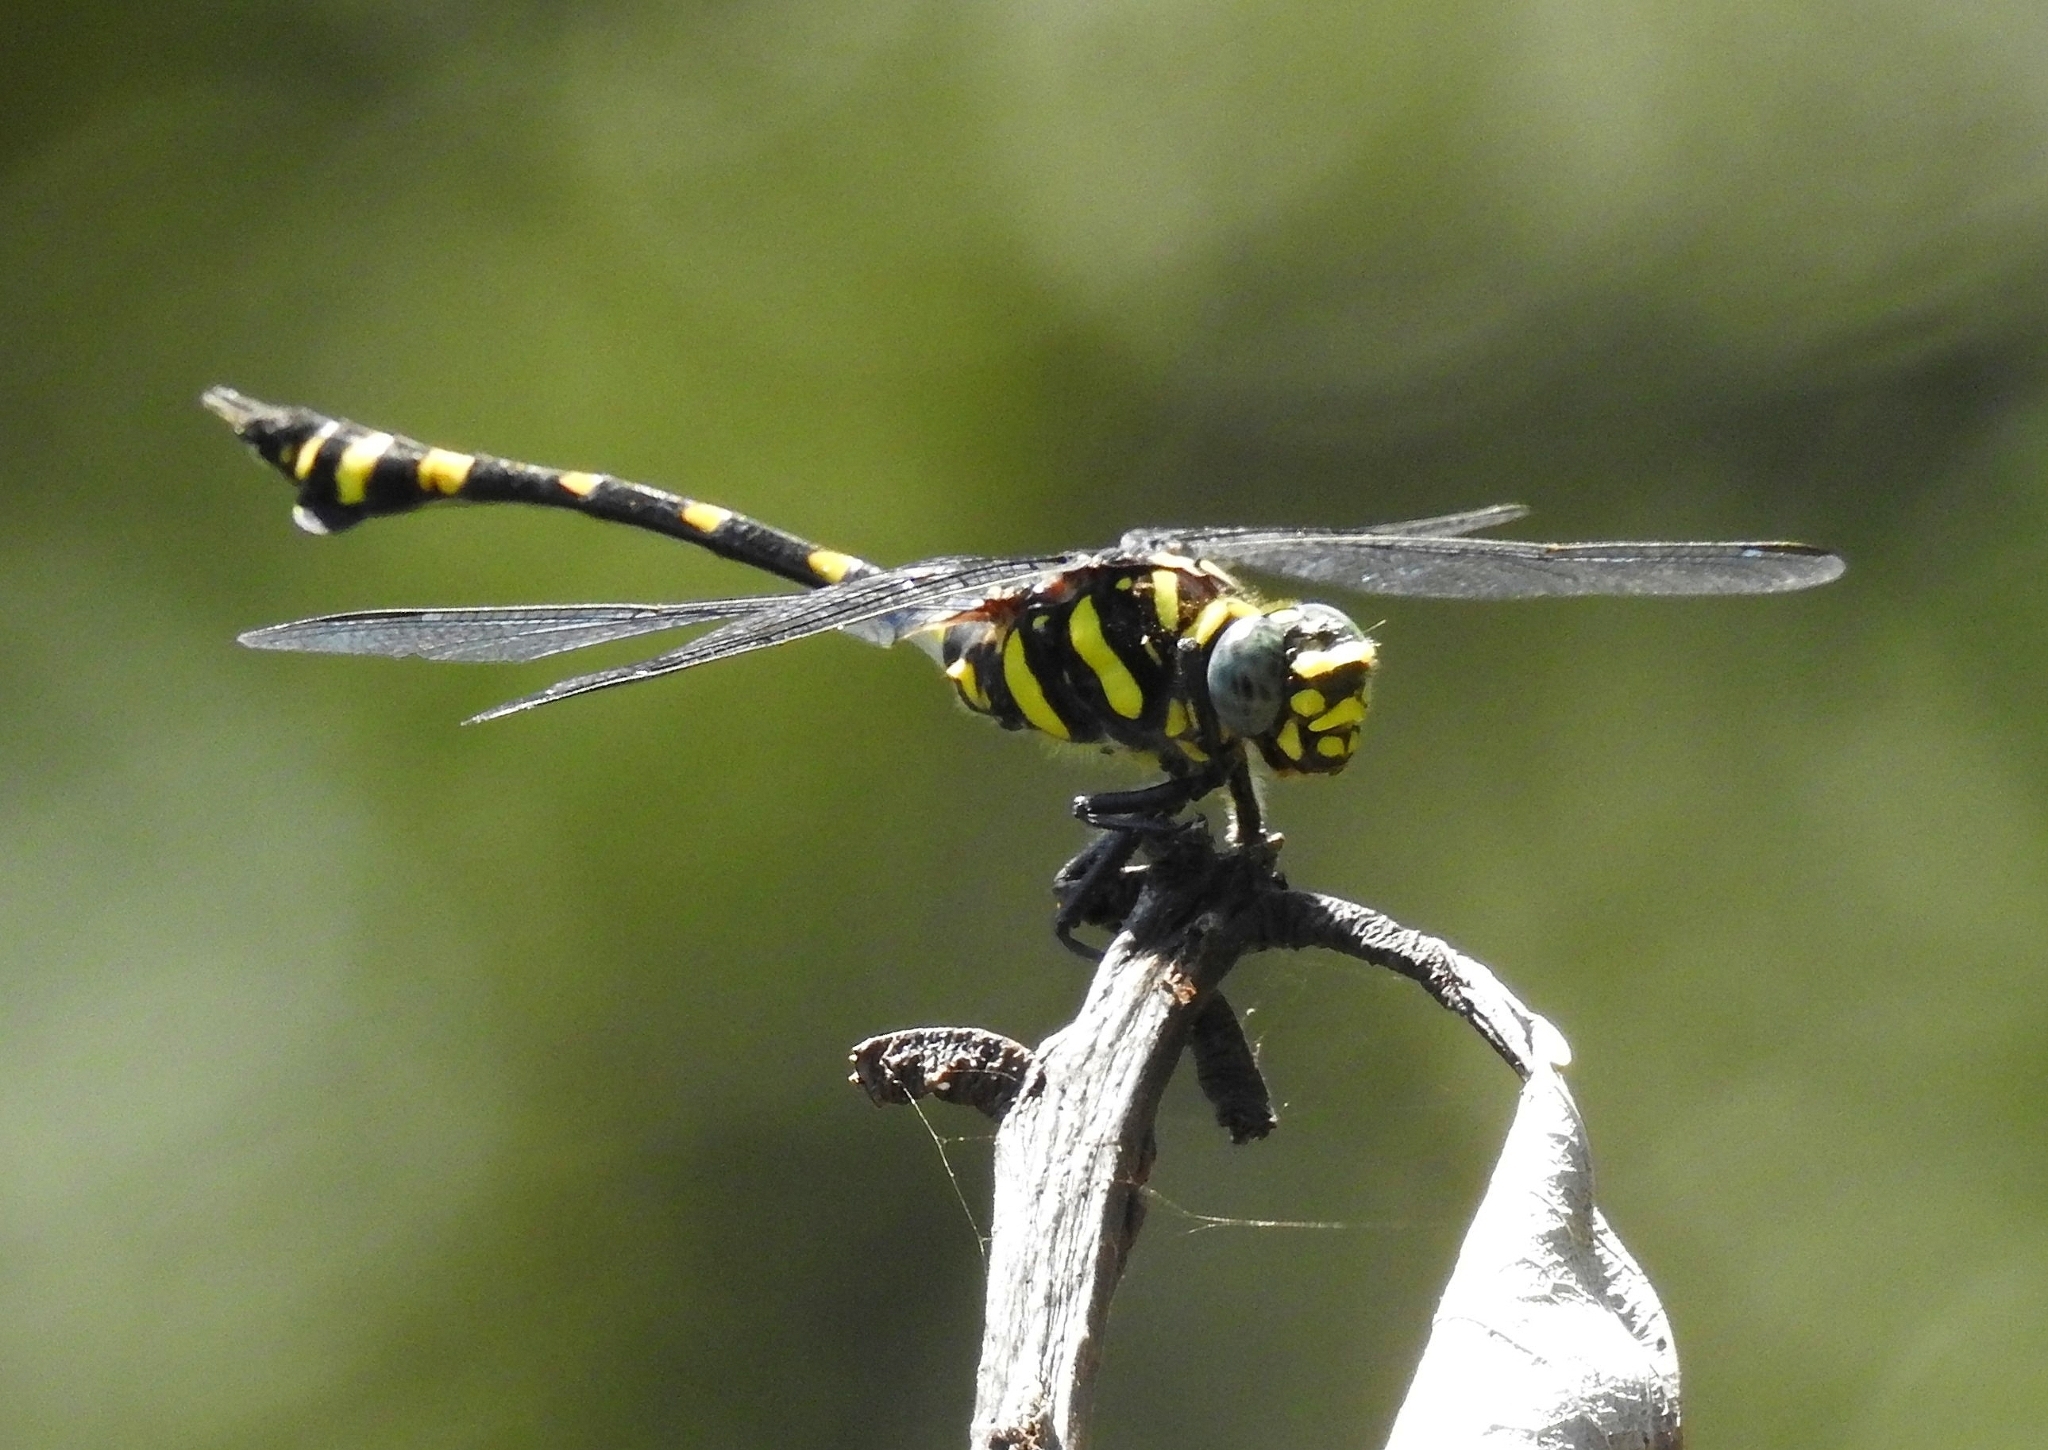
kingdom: Animalia
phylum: Arthropoda
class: Insecta
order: Odonata
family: Gomphidae
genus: Ictinogomphus
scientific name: Ictinogomphus rapax
